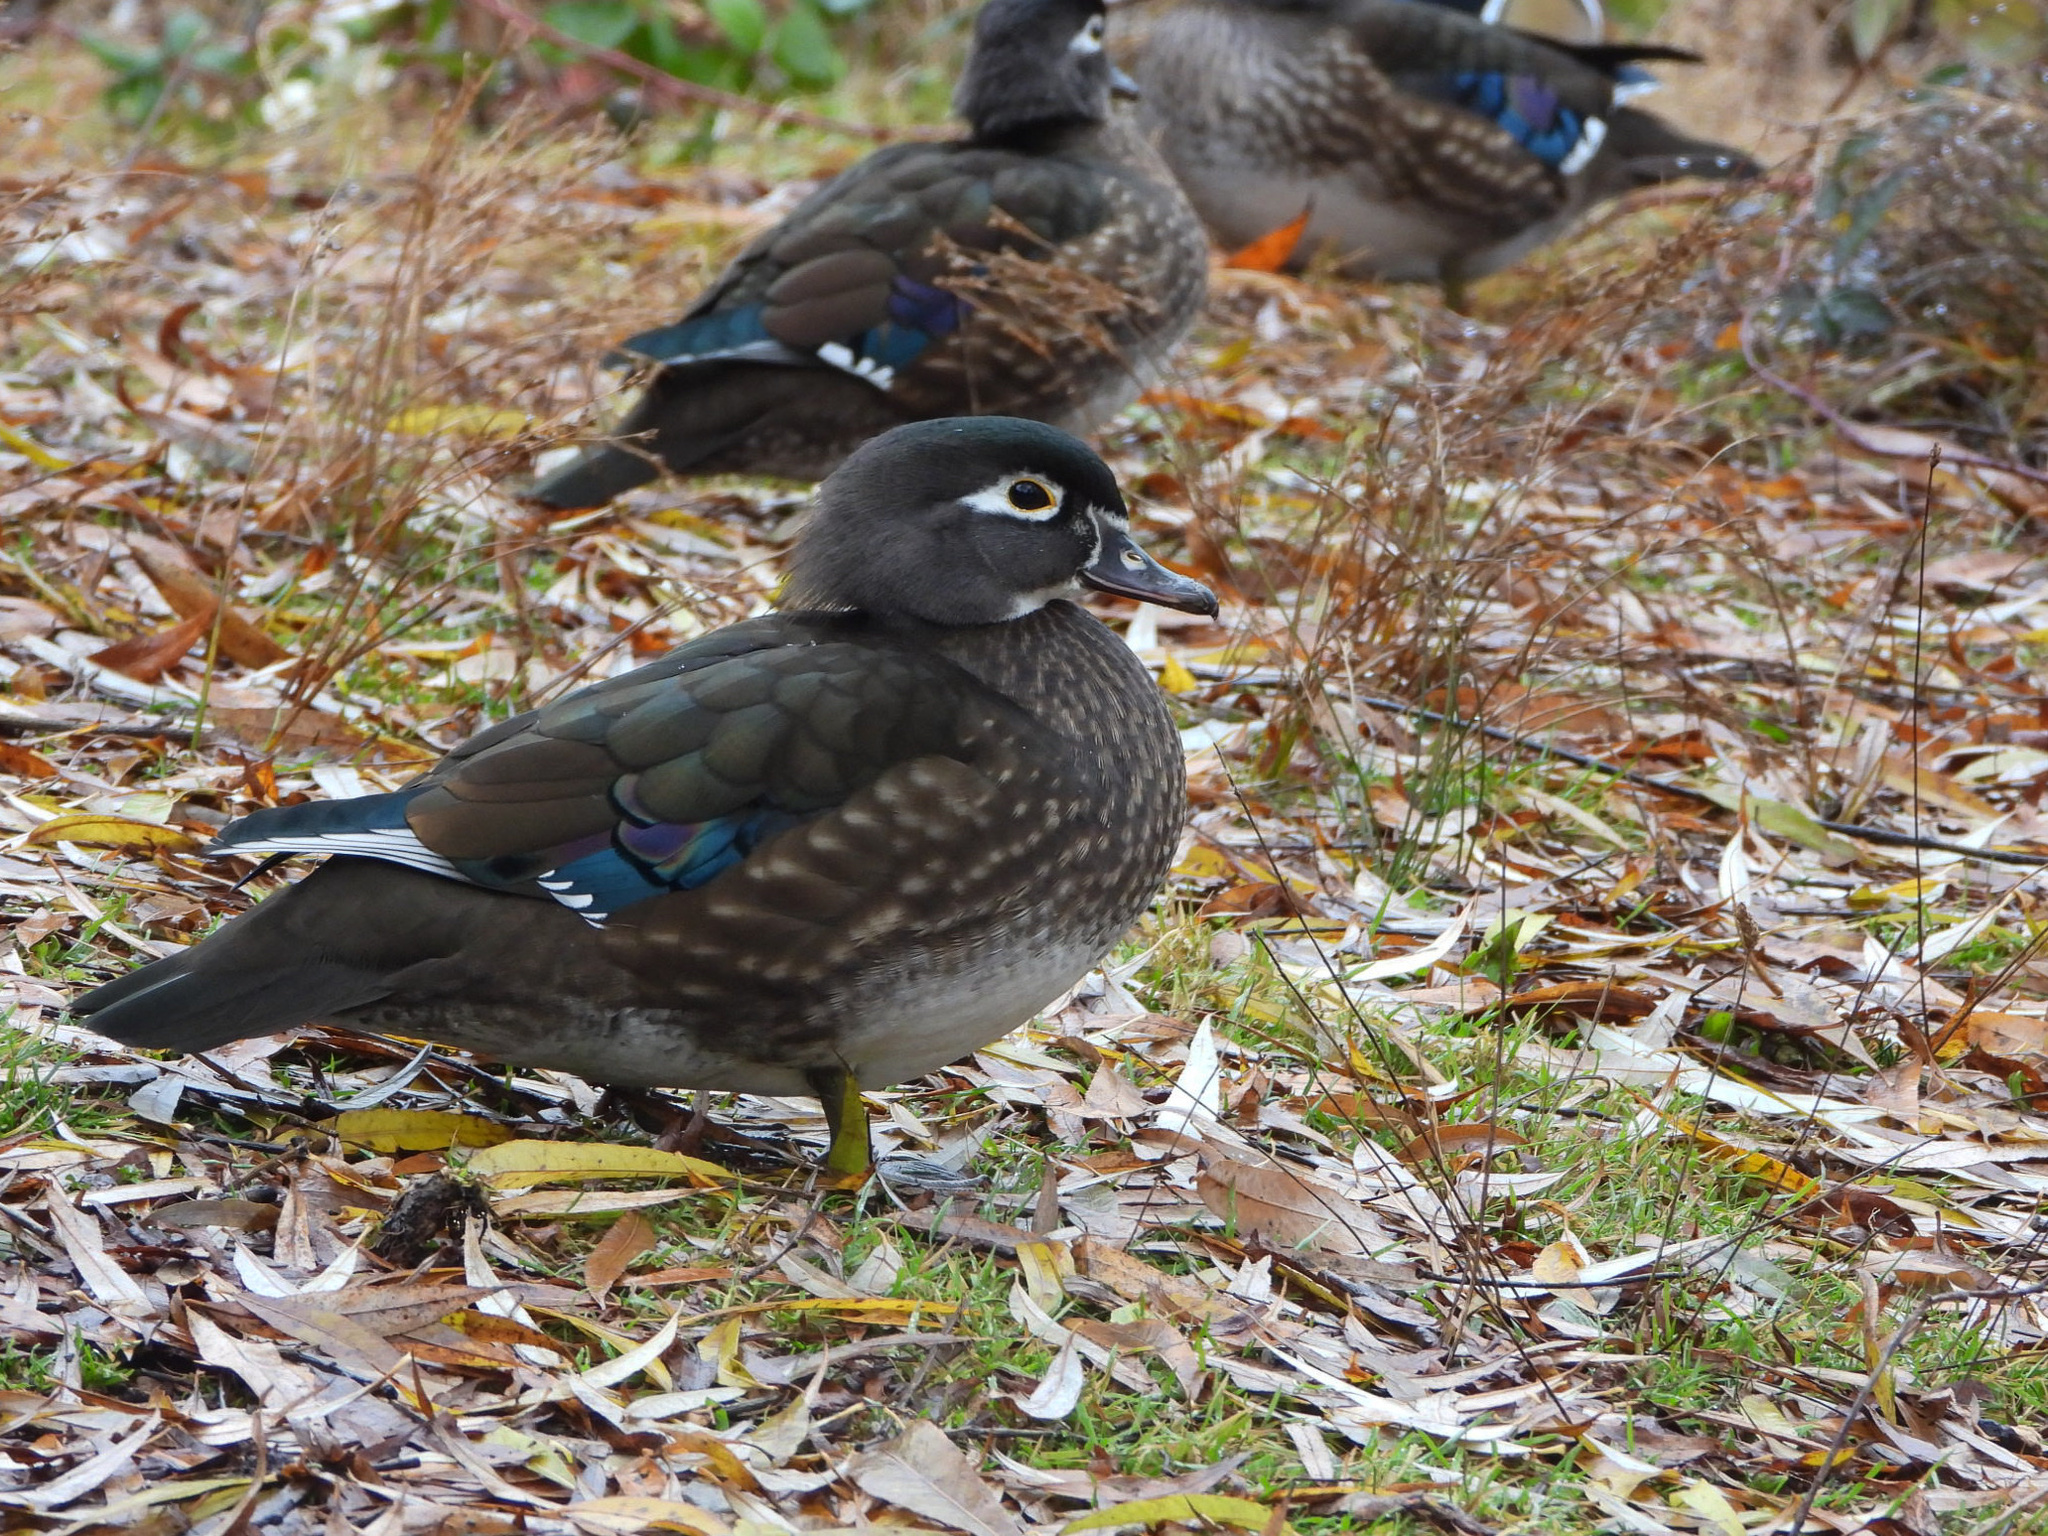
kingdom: Animalia
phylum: Chordata
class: Aves
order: Anseriformes
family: Anatidae
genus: Aix
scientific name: Aix sponsa
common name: Wood duck
